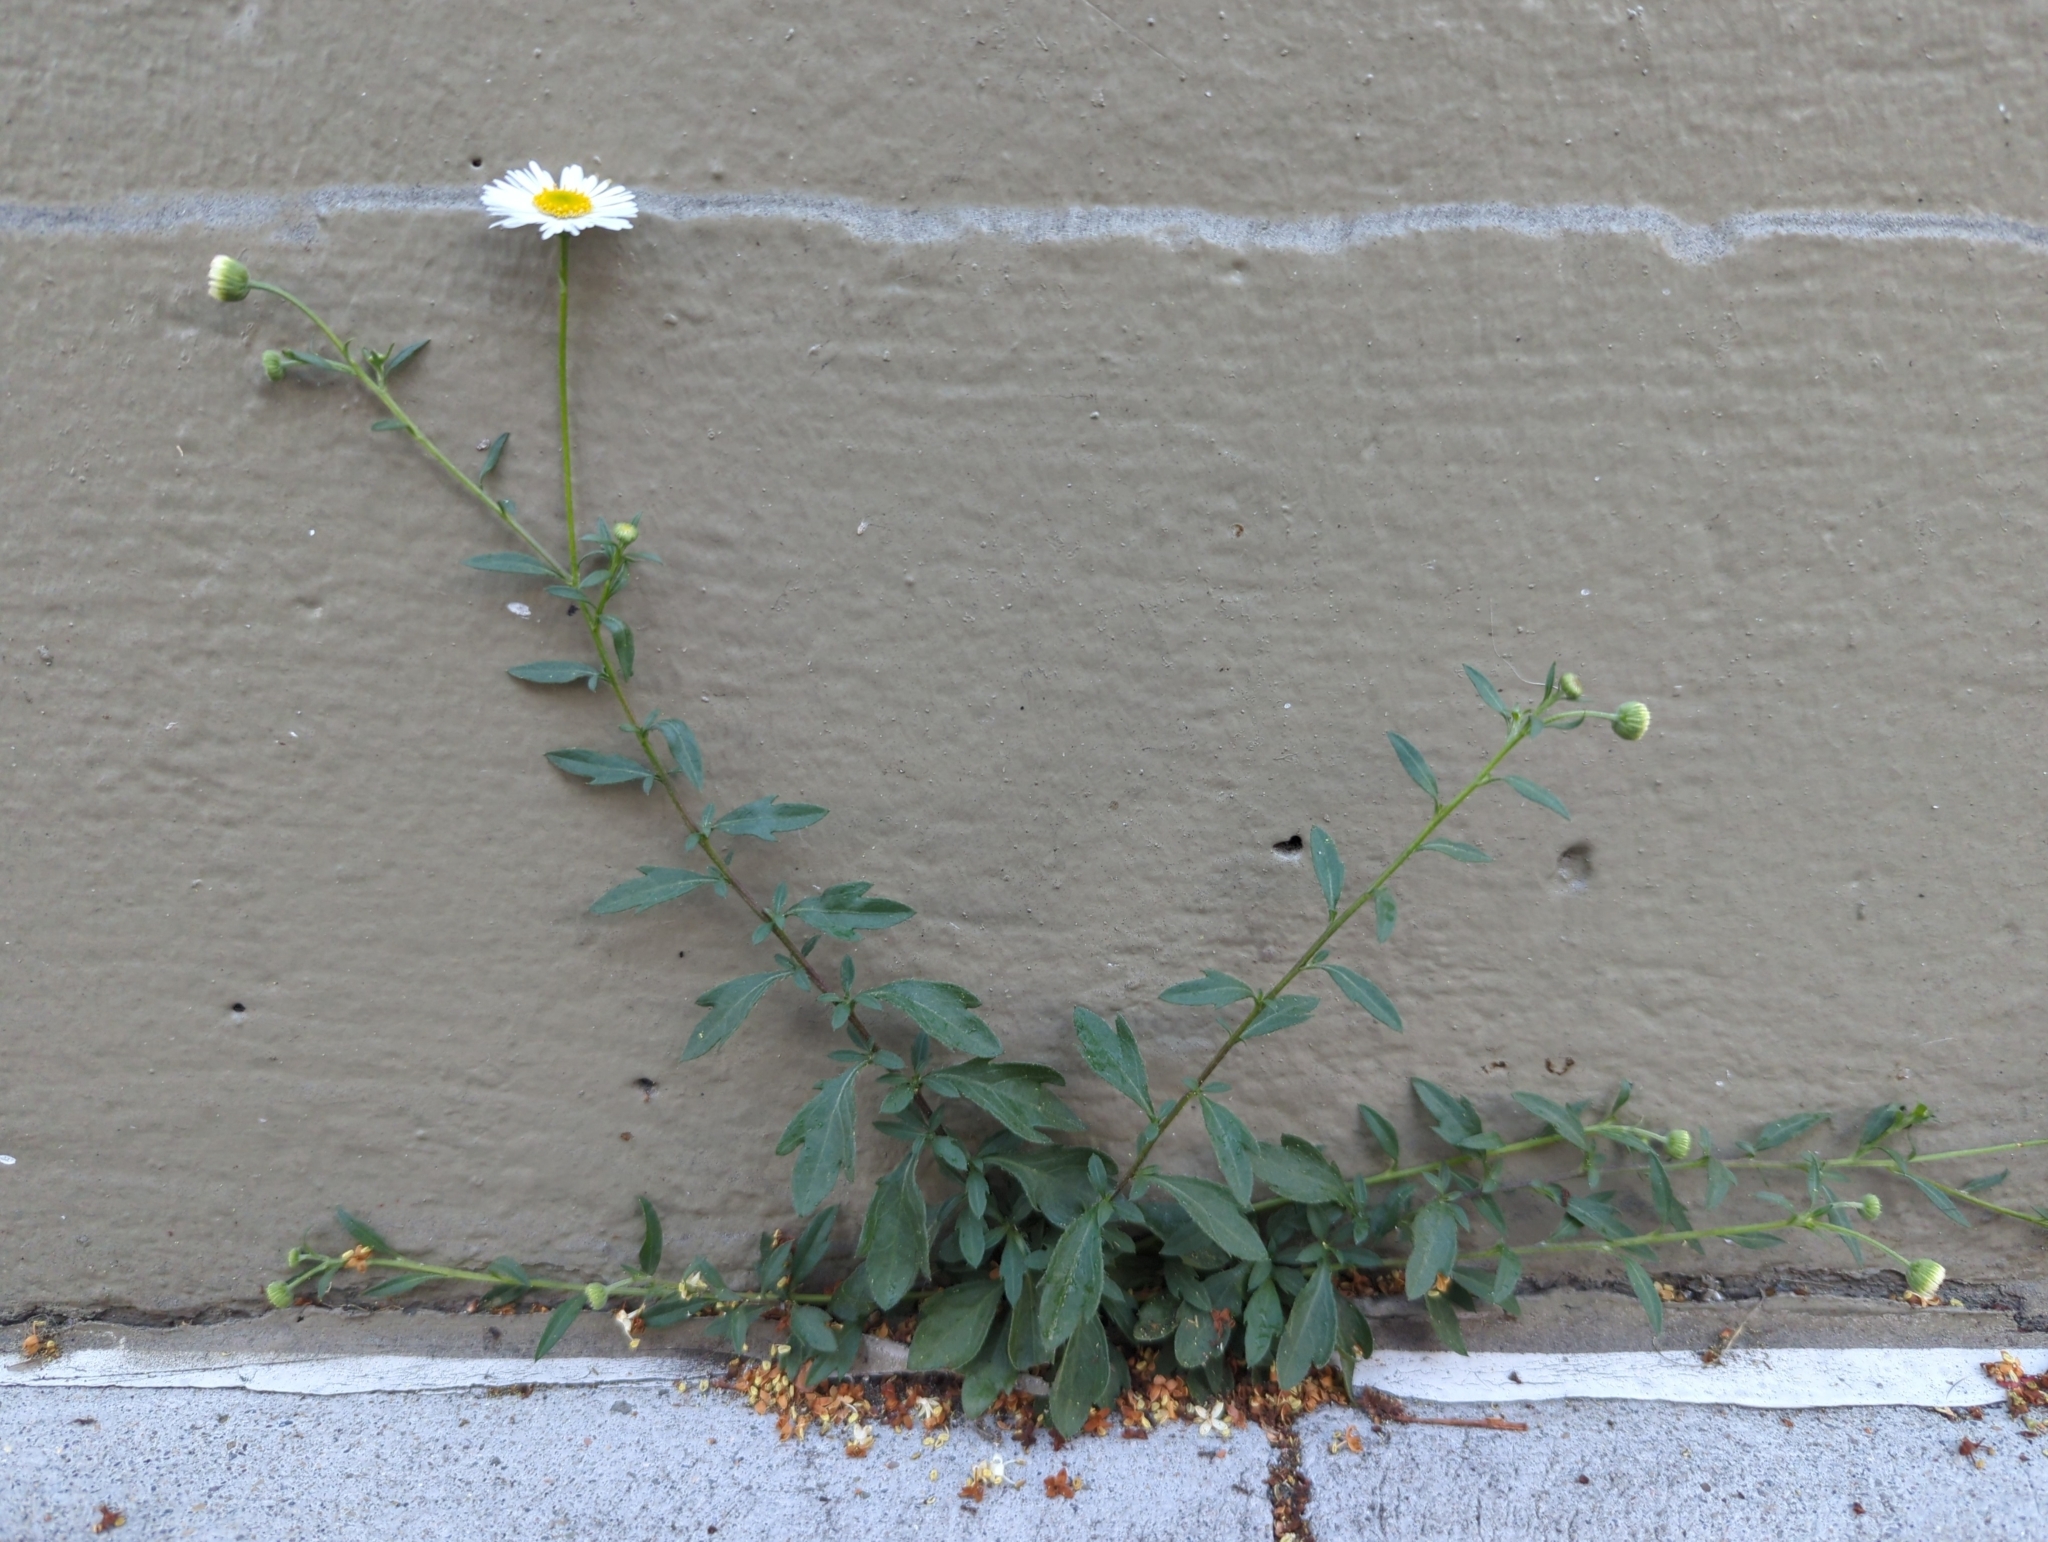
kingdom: Plantae
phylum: Tracheophyta
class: Magnoliopsida
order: Asterales
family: Asteraceae
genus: Erigeron
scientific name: Erigeron karvinskianus
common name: Mexican fleabane
